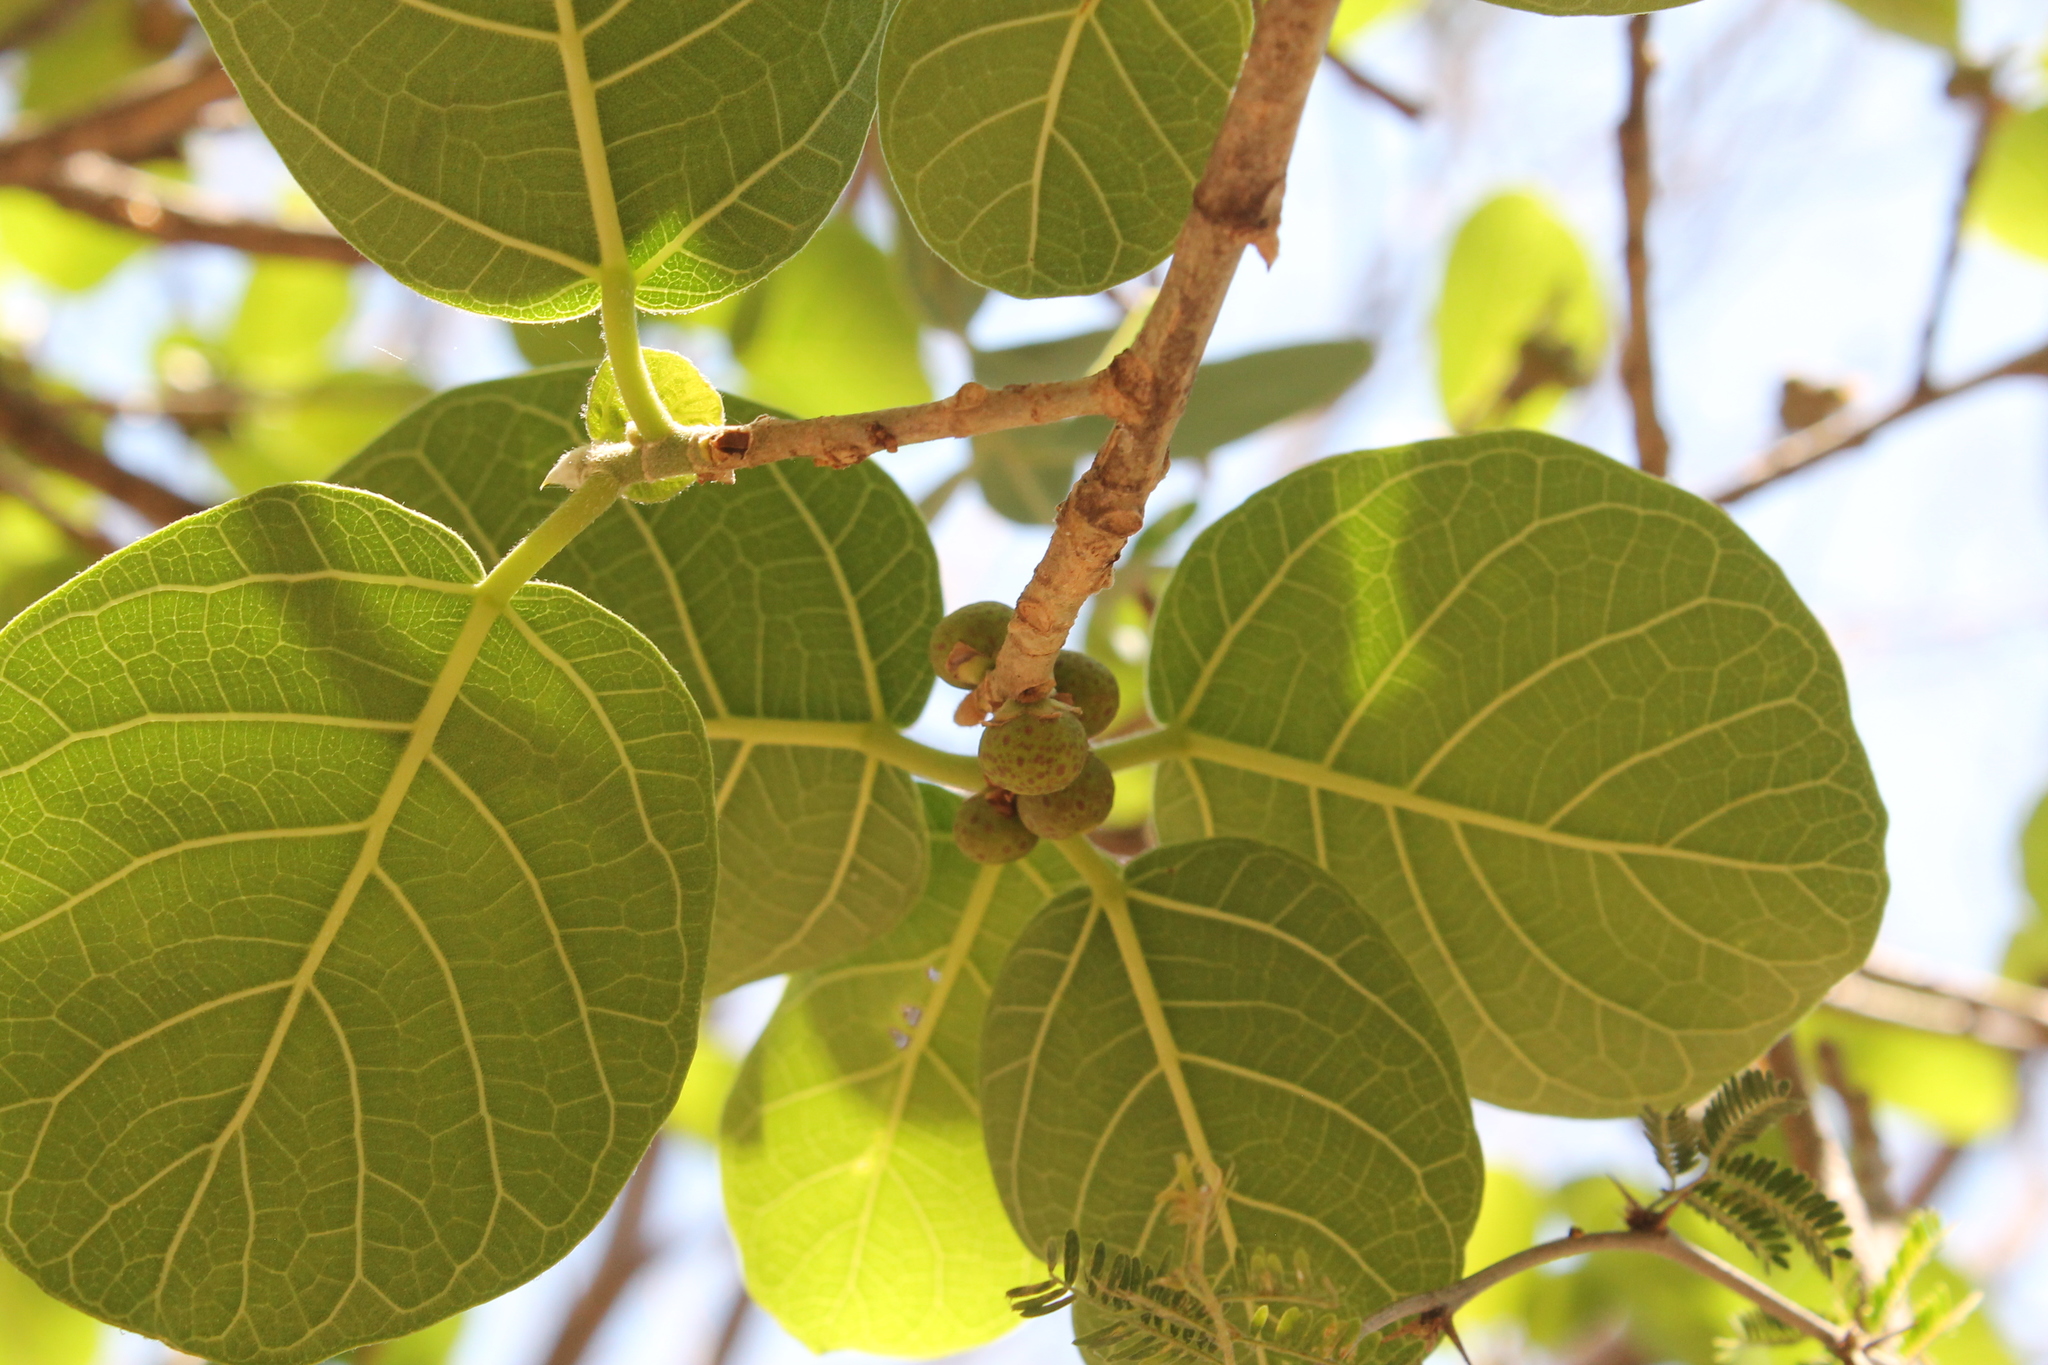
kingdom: Plantae
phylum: Tracheophyta
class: Magnoliopsida
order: Rosales
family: Moraceae
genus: Ficus
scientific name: Ficus cotinifolia
